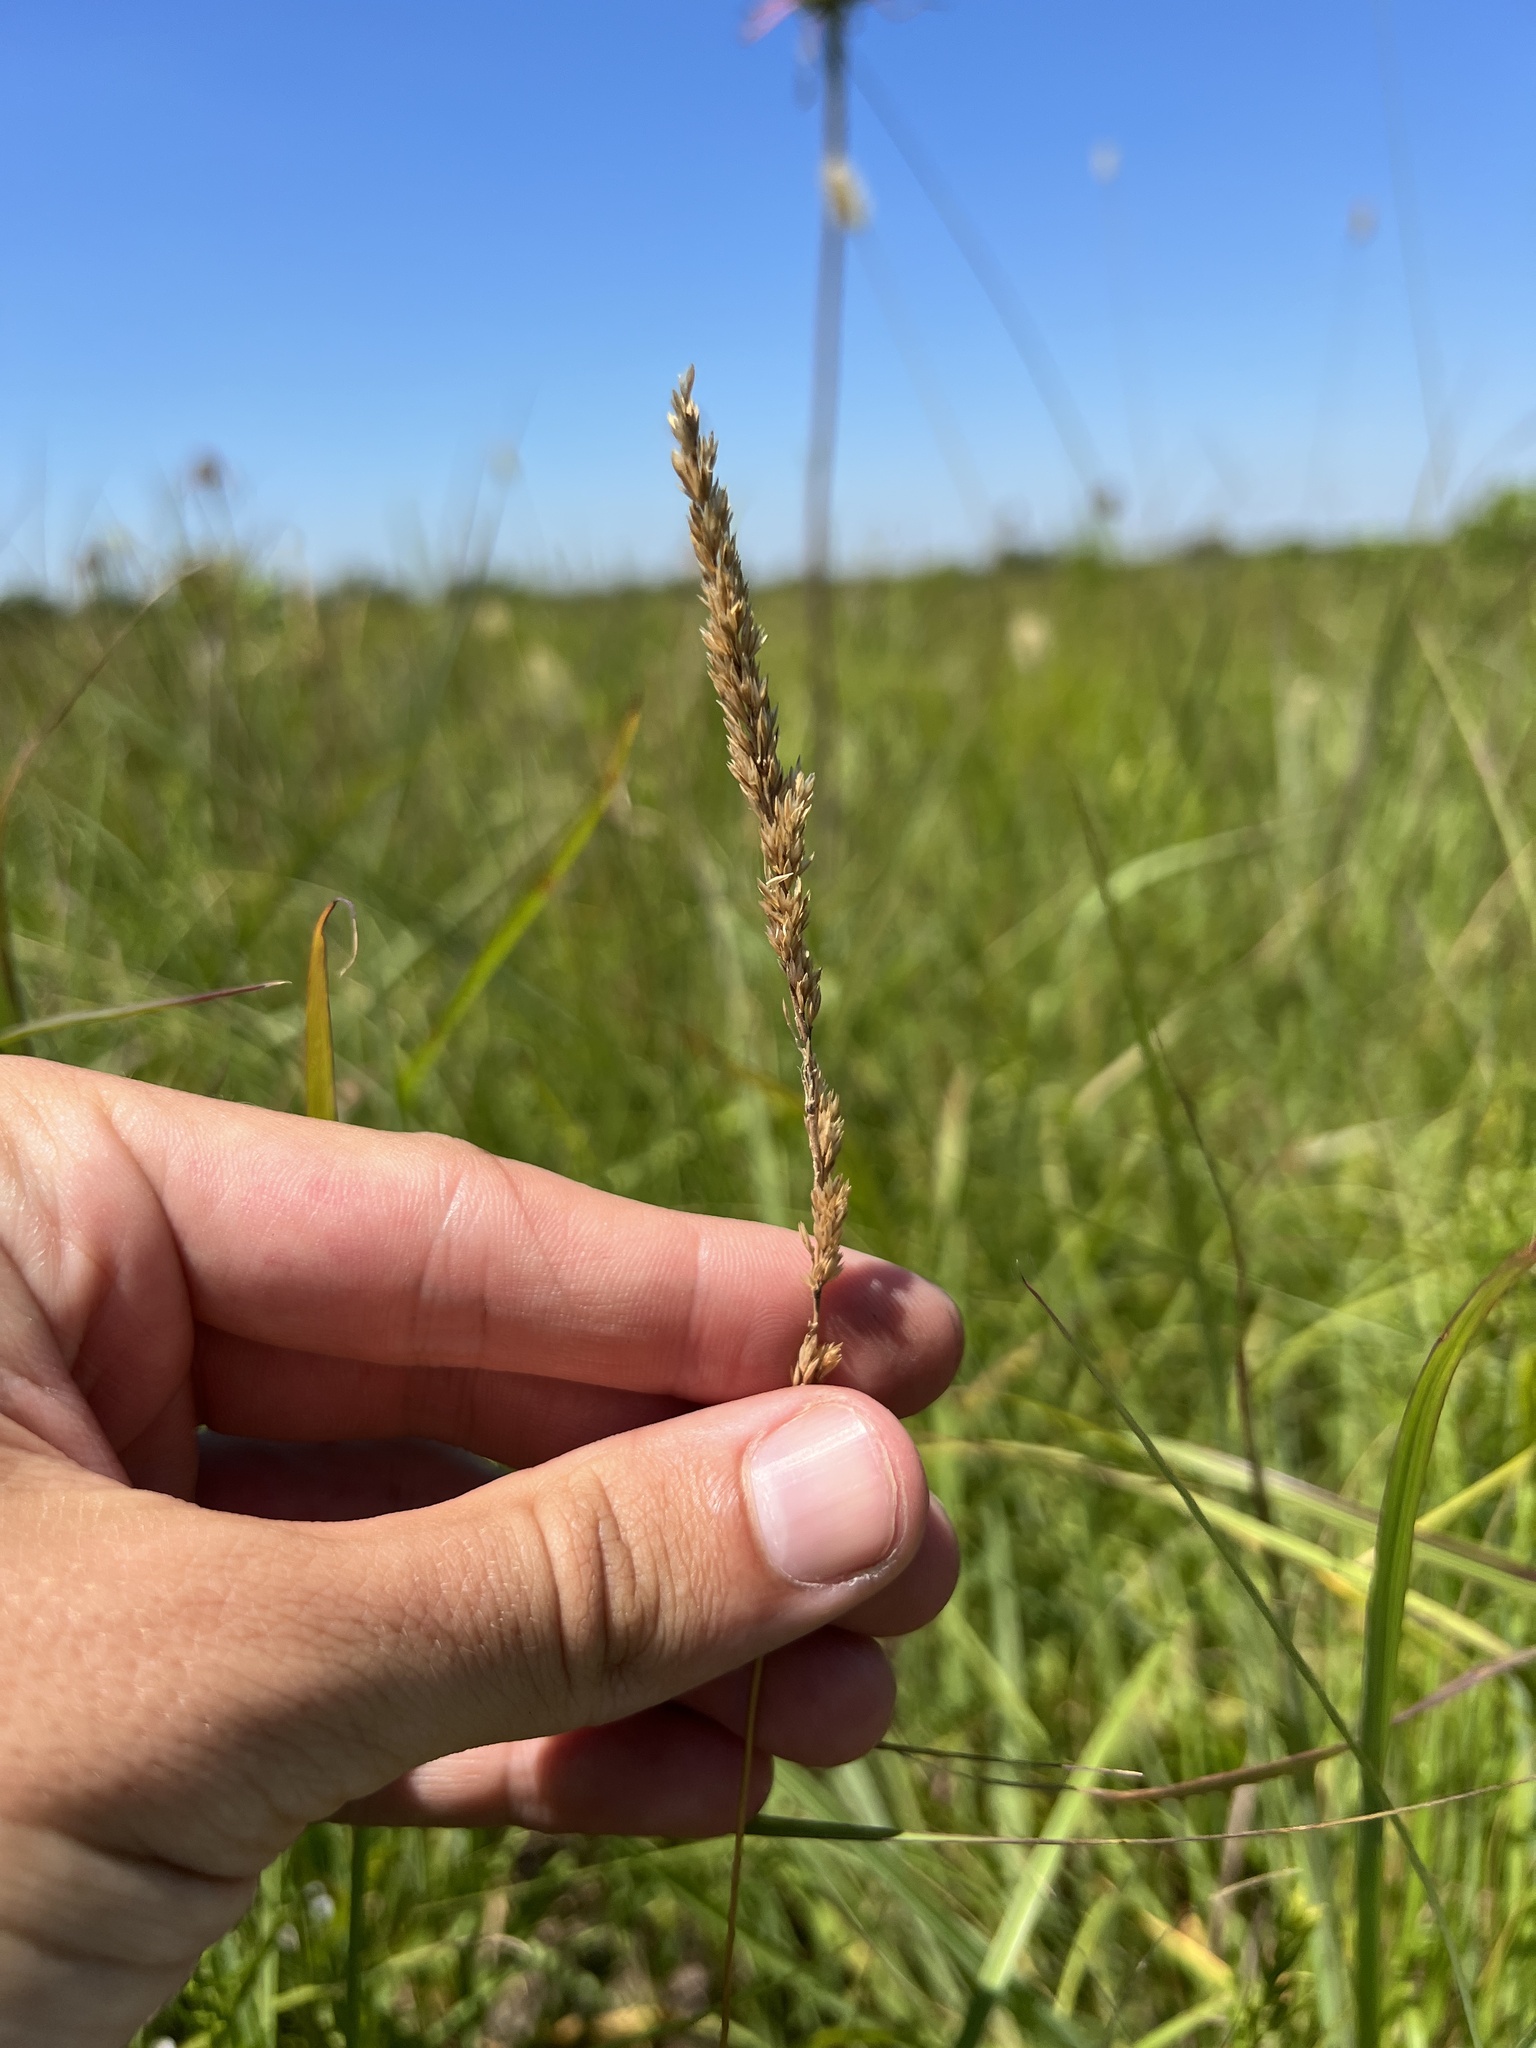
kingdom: Plantae
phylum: Tracheophyta
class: Liliopsida
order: Poales
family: Poaceae
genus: Koeleria
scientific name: Koeleria macrantha
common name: Crested hair-grass
